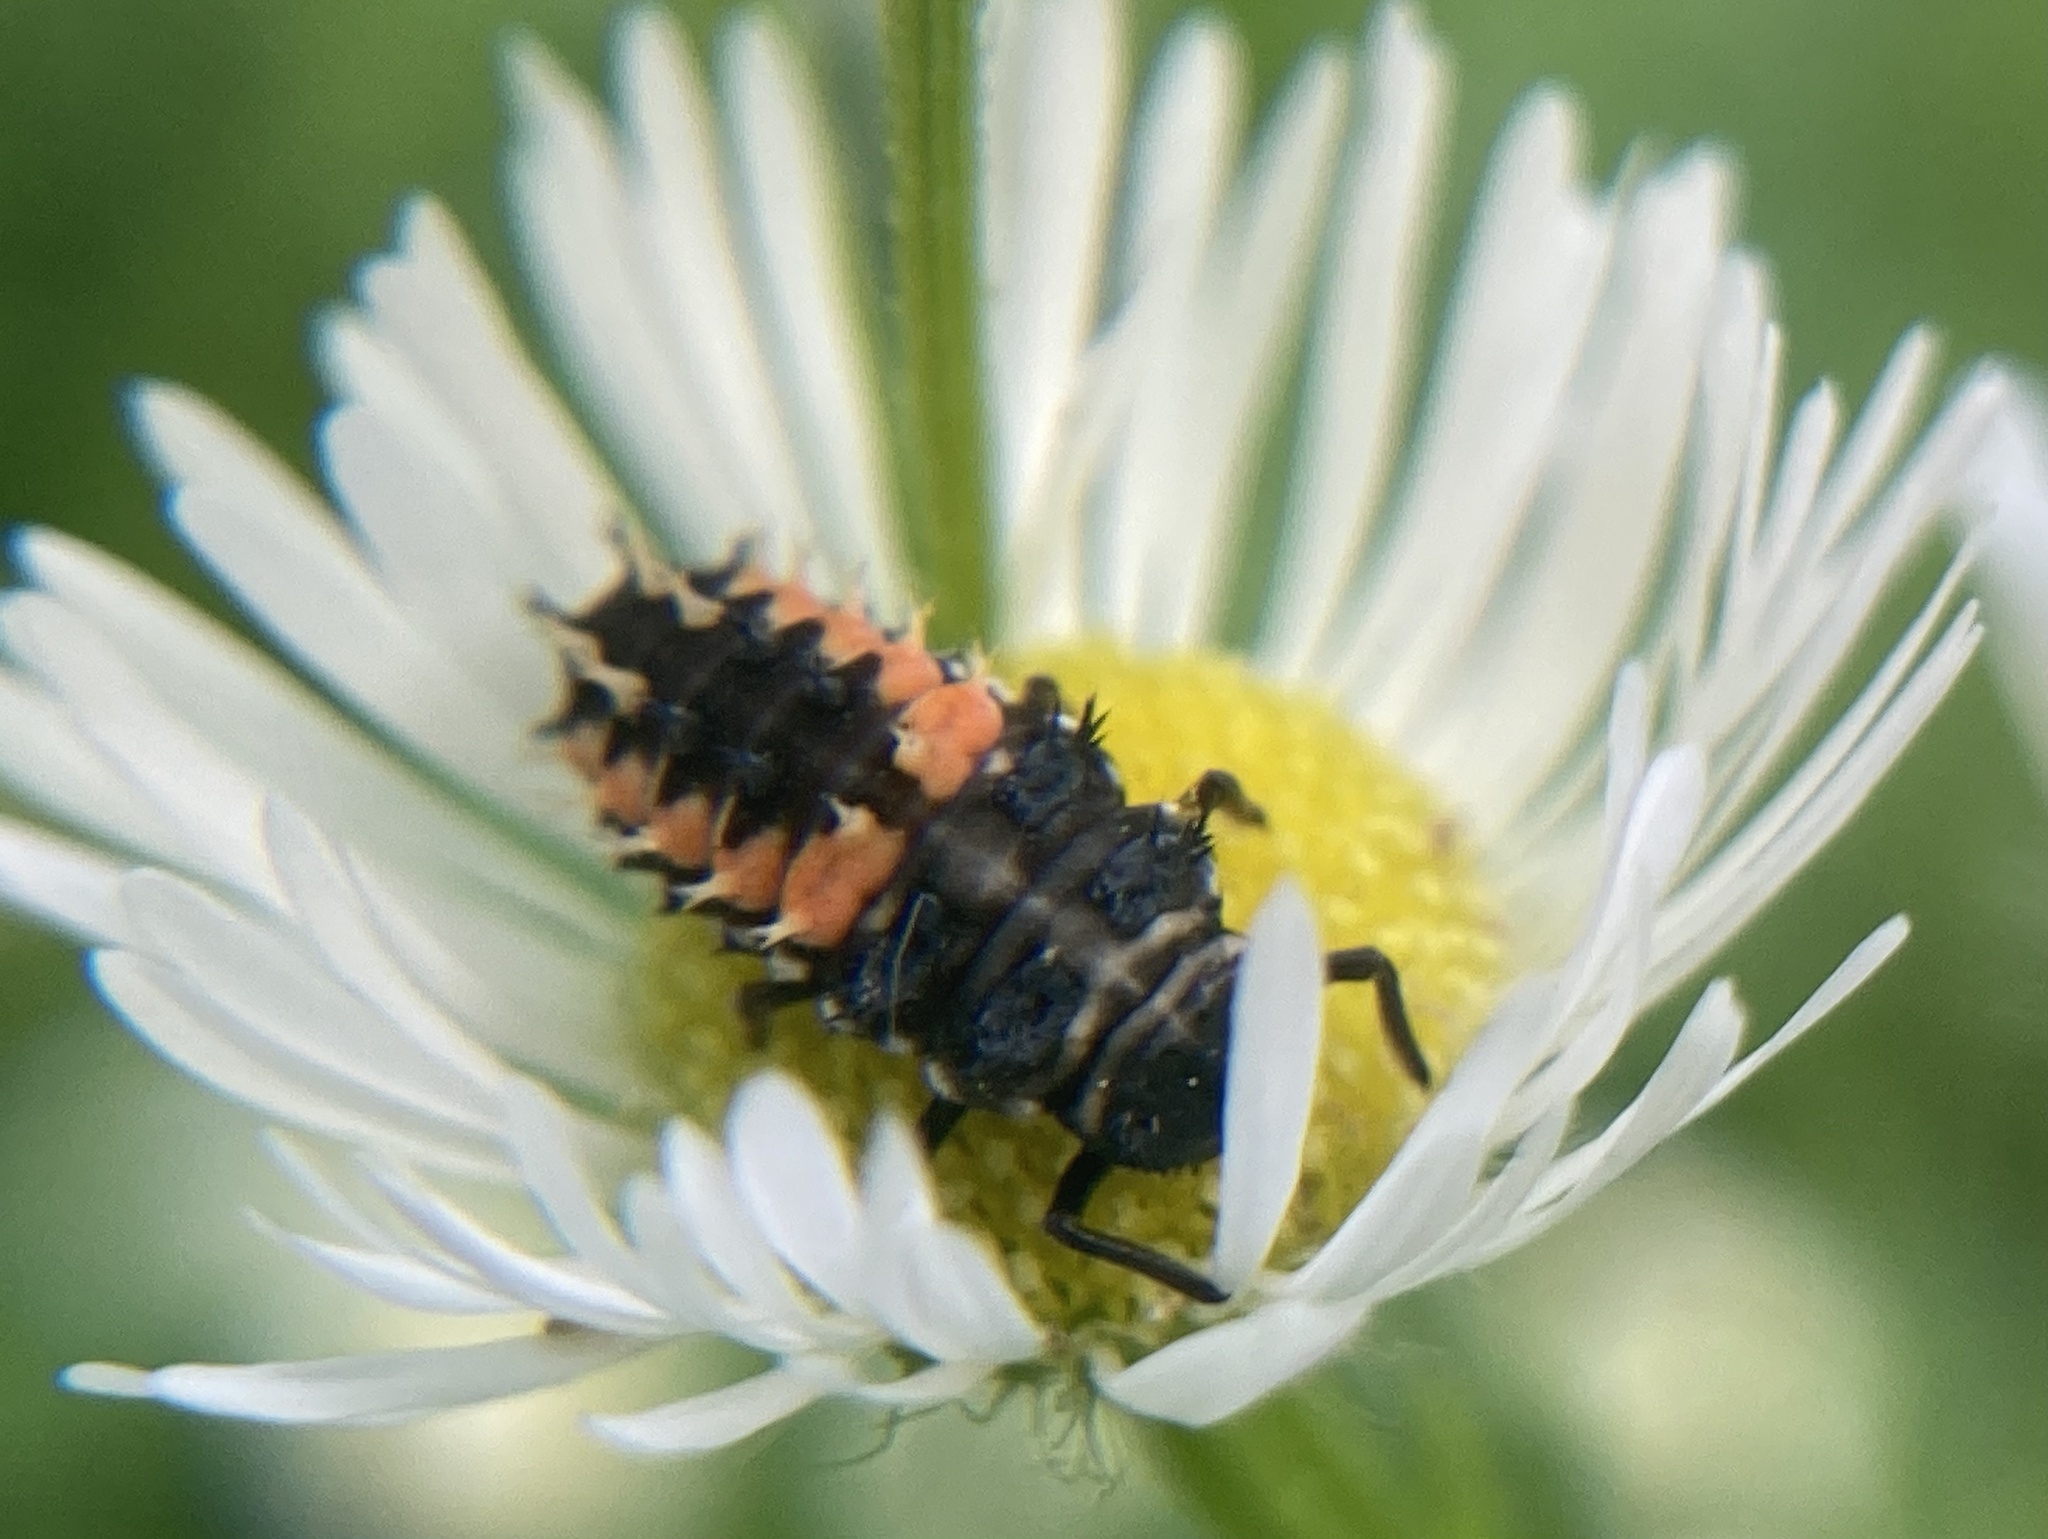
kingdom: Animalia
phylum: Arthropoda
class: Insecta
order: Coleoptera
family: Coccinellidae
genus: Harmonia
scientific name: Harmonia axyridis
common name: Harlequin ladybird
